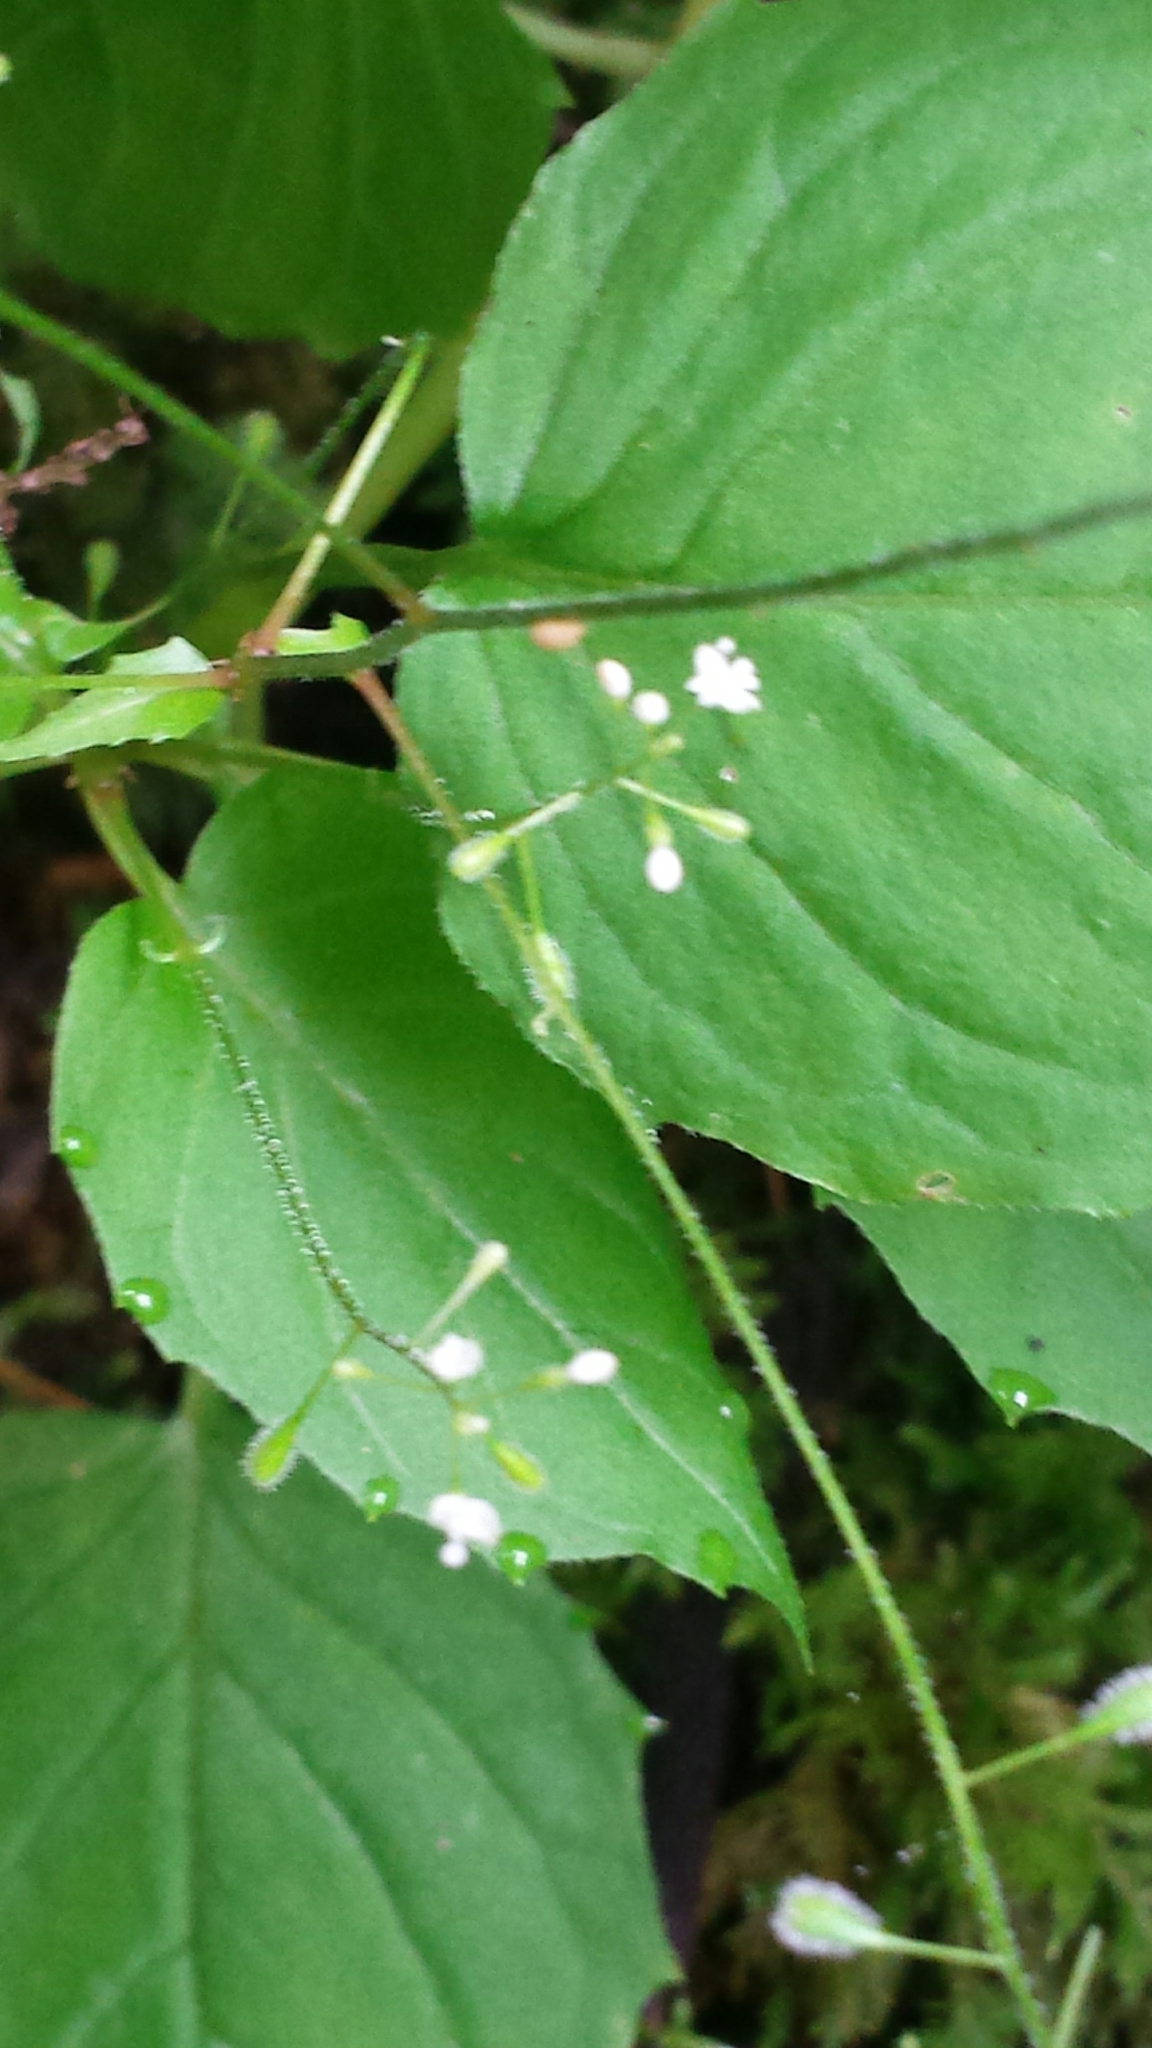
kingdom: Plantae
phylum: Tracheophyta
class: Magnoliopsida
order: Myrtales
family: Onagraceae
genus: Circaea
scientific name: Circaea alpina
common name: Alpine enchanter's-nightshade
